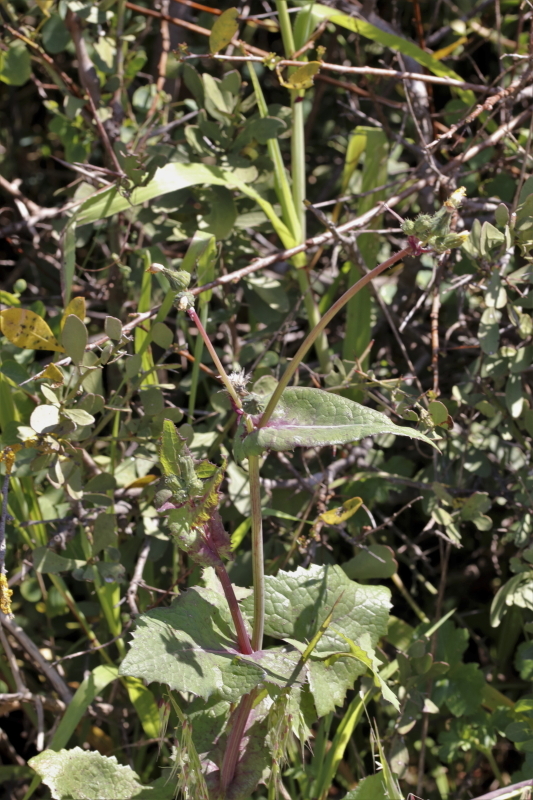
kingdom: Plantae
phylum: Tracheophyta
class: Magnoliopsida
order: Asterales
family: Asteraceae
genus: Sonchus
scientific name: Sonchus oleraceus
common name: Common sowthistle
